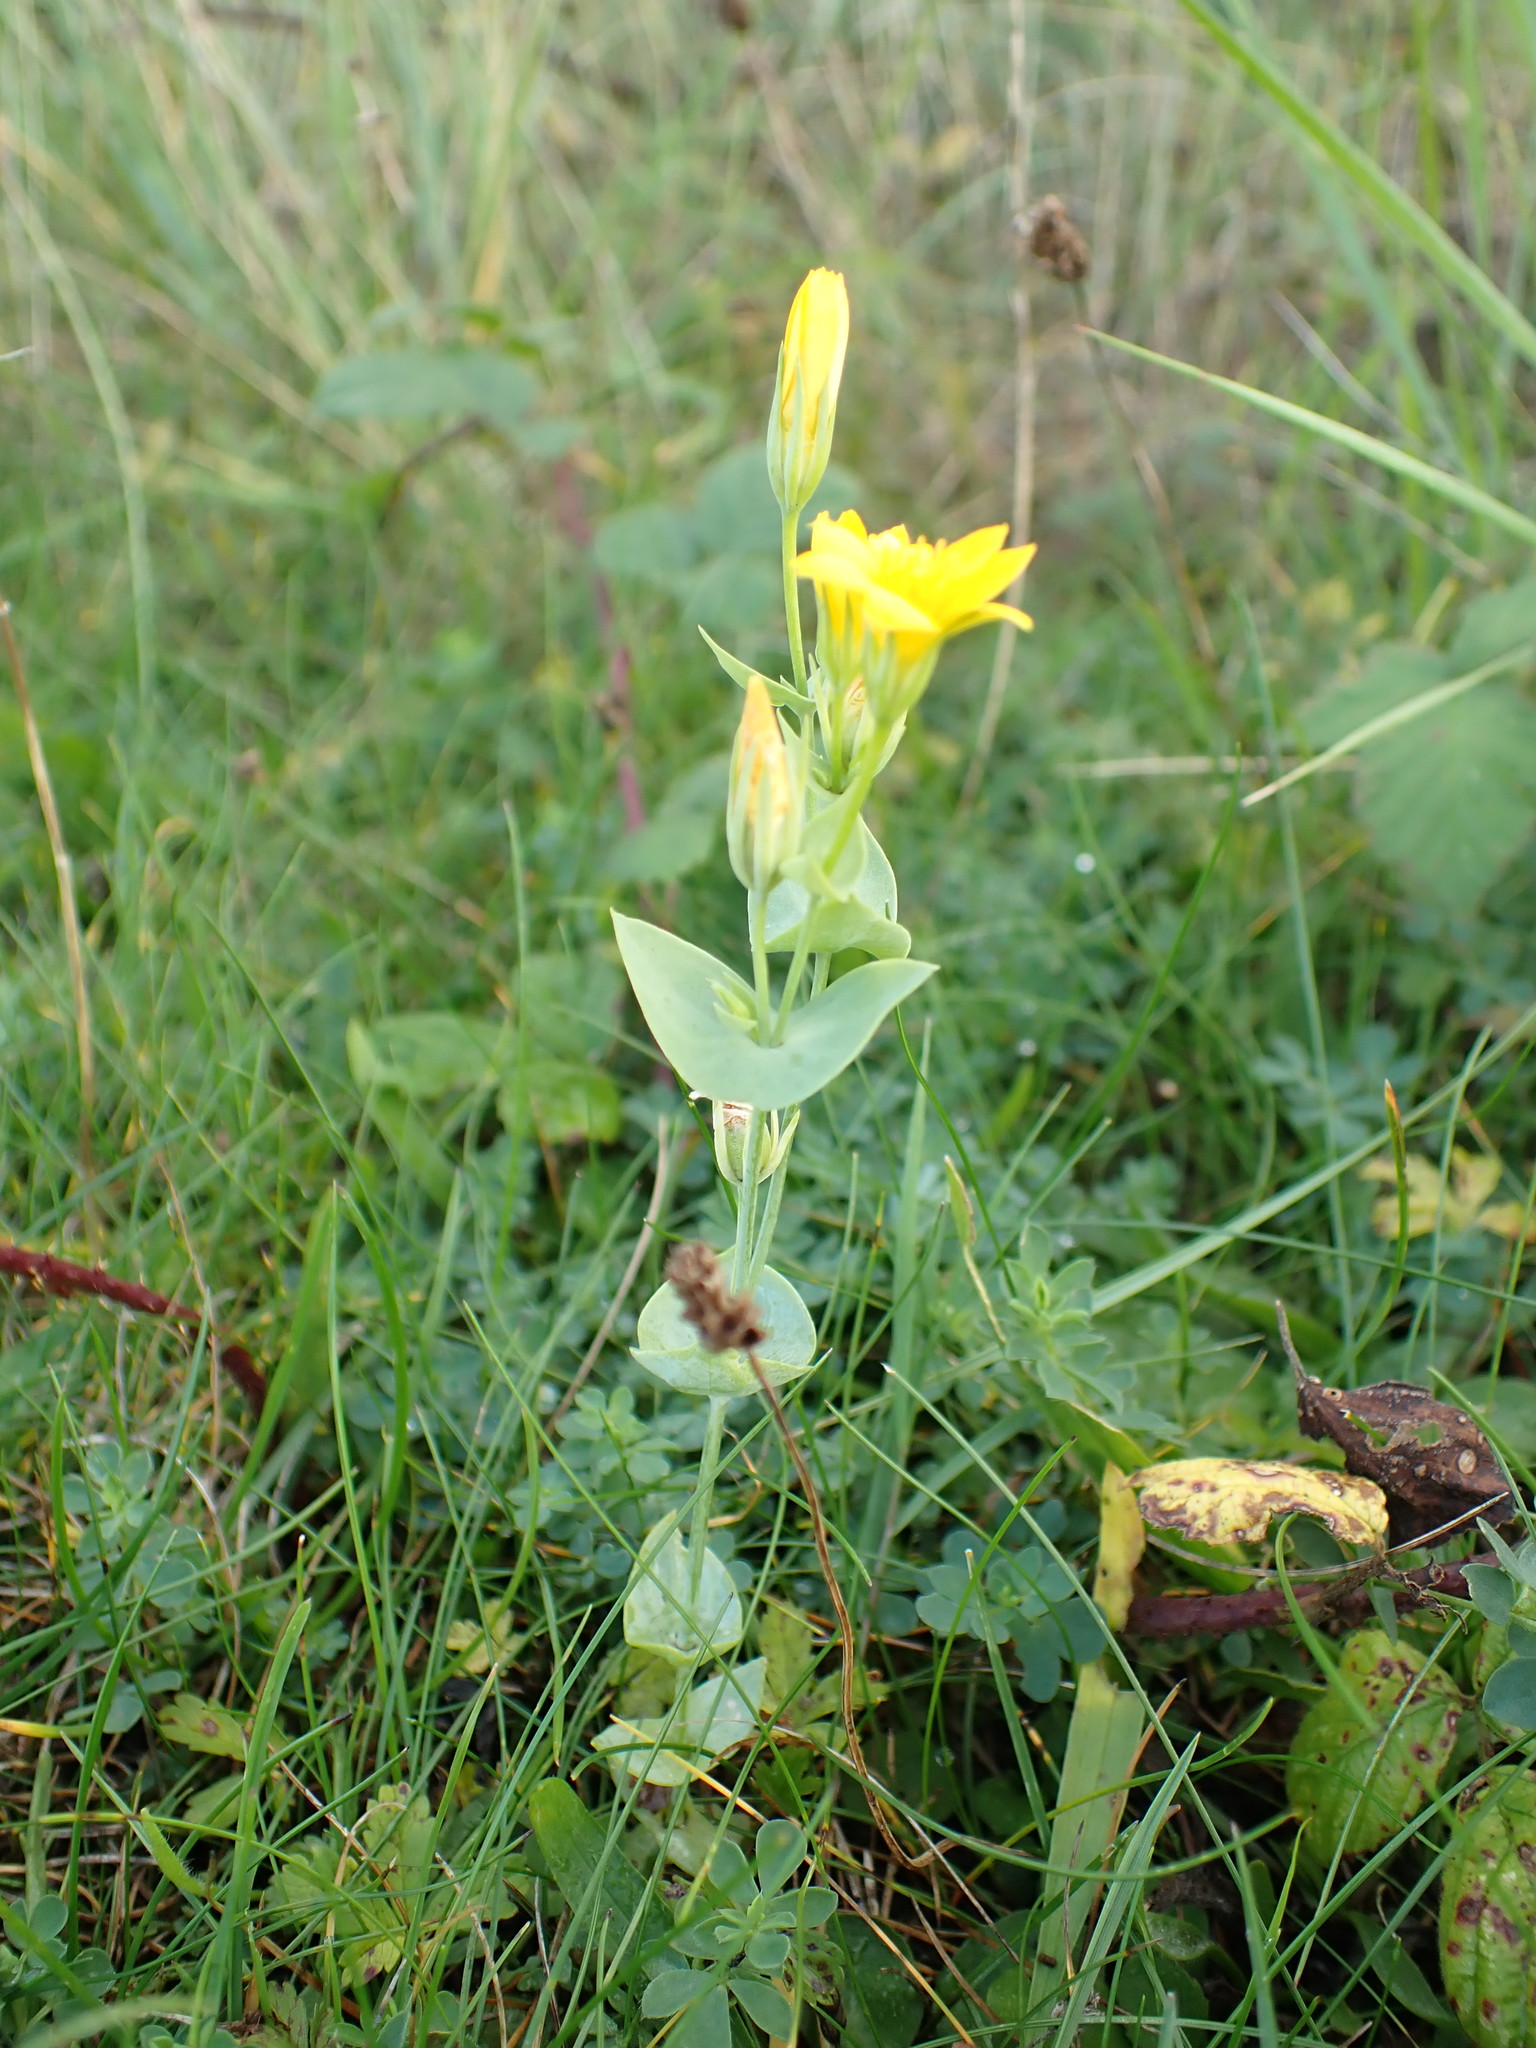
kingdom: Plantae
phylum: Tracheophyta
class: Magnoliopsida
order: Gentianales
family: Gentianaceae
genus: Blackstonia
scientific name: Blackstonia perfoliata
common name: Yellow-wort
